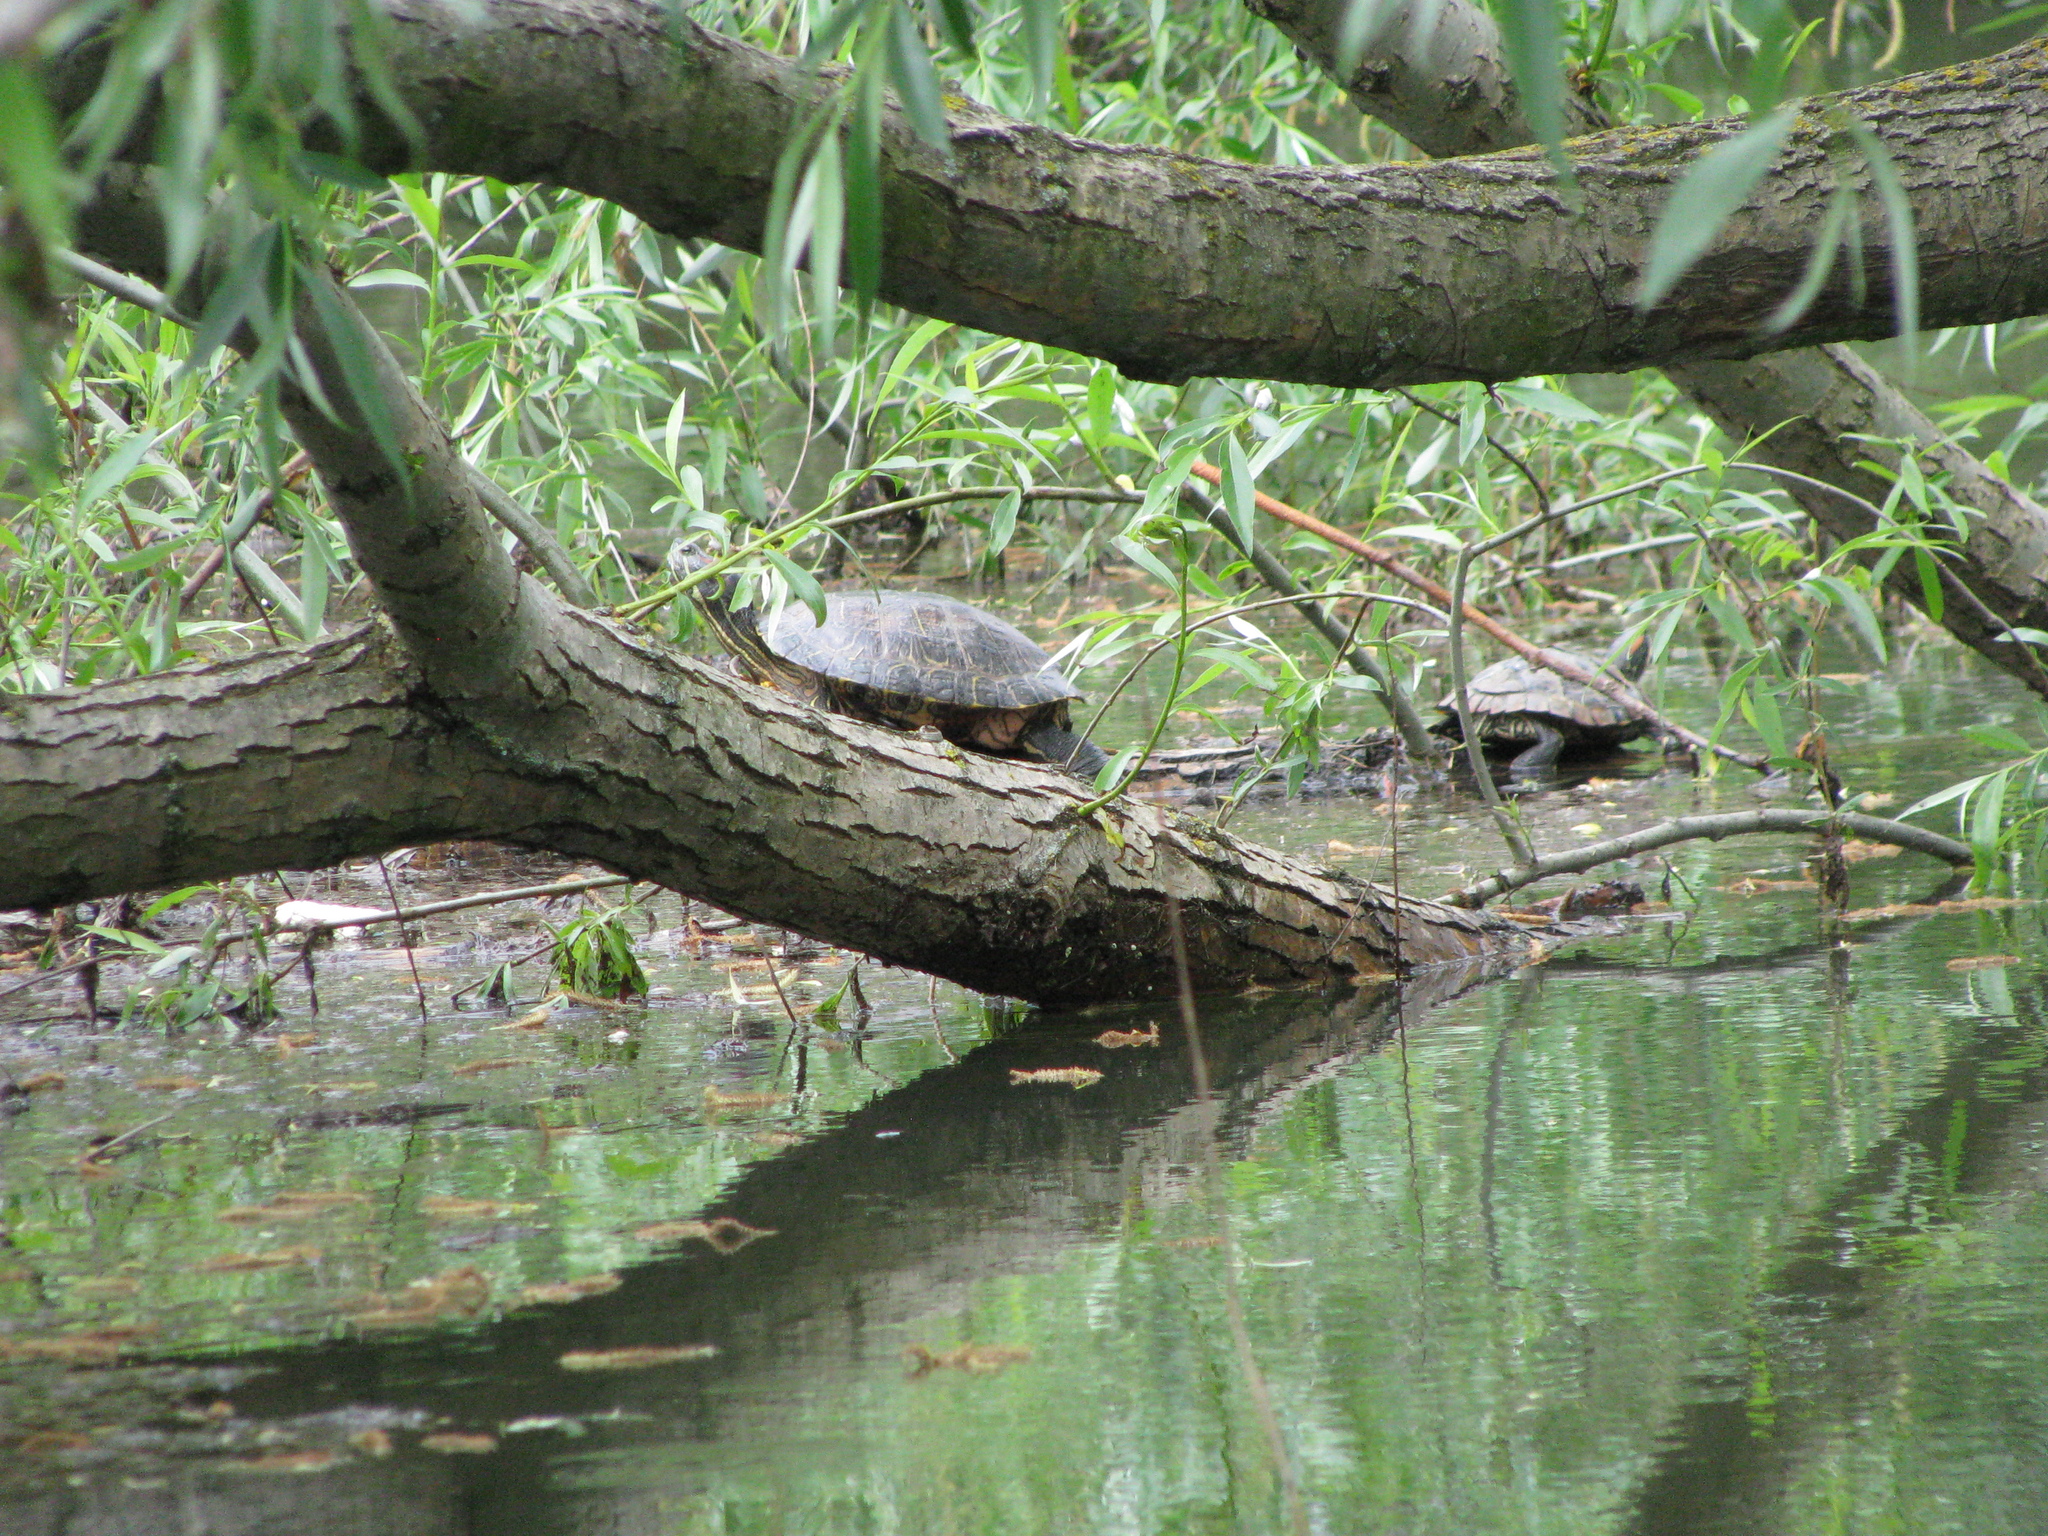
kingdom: Animalia
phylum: Chordata
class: Testudines
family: Emydidae
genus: Trachemys
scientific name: Trachemys scripta
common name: Slider
